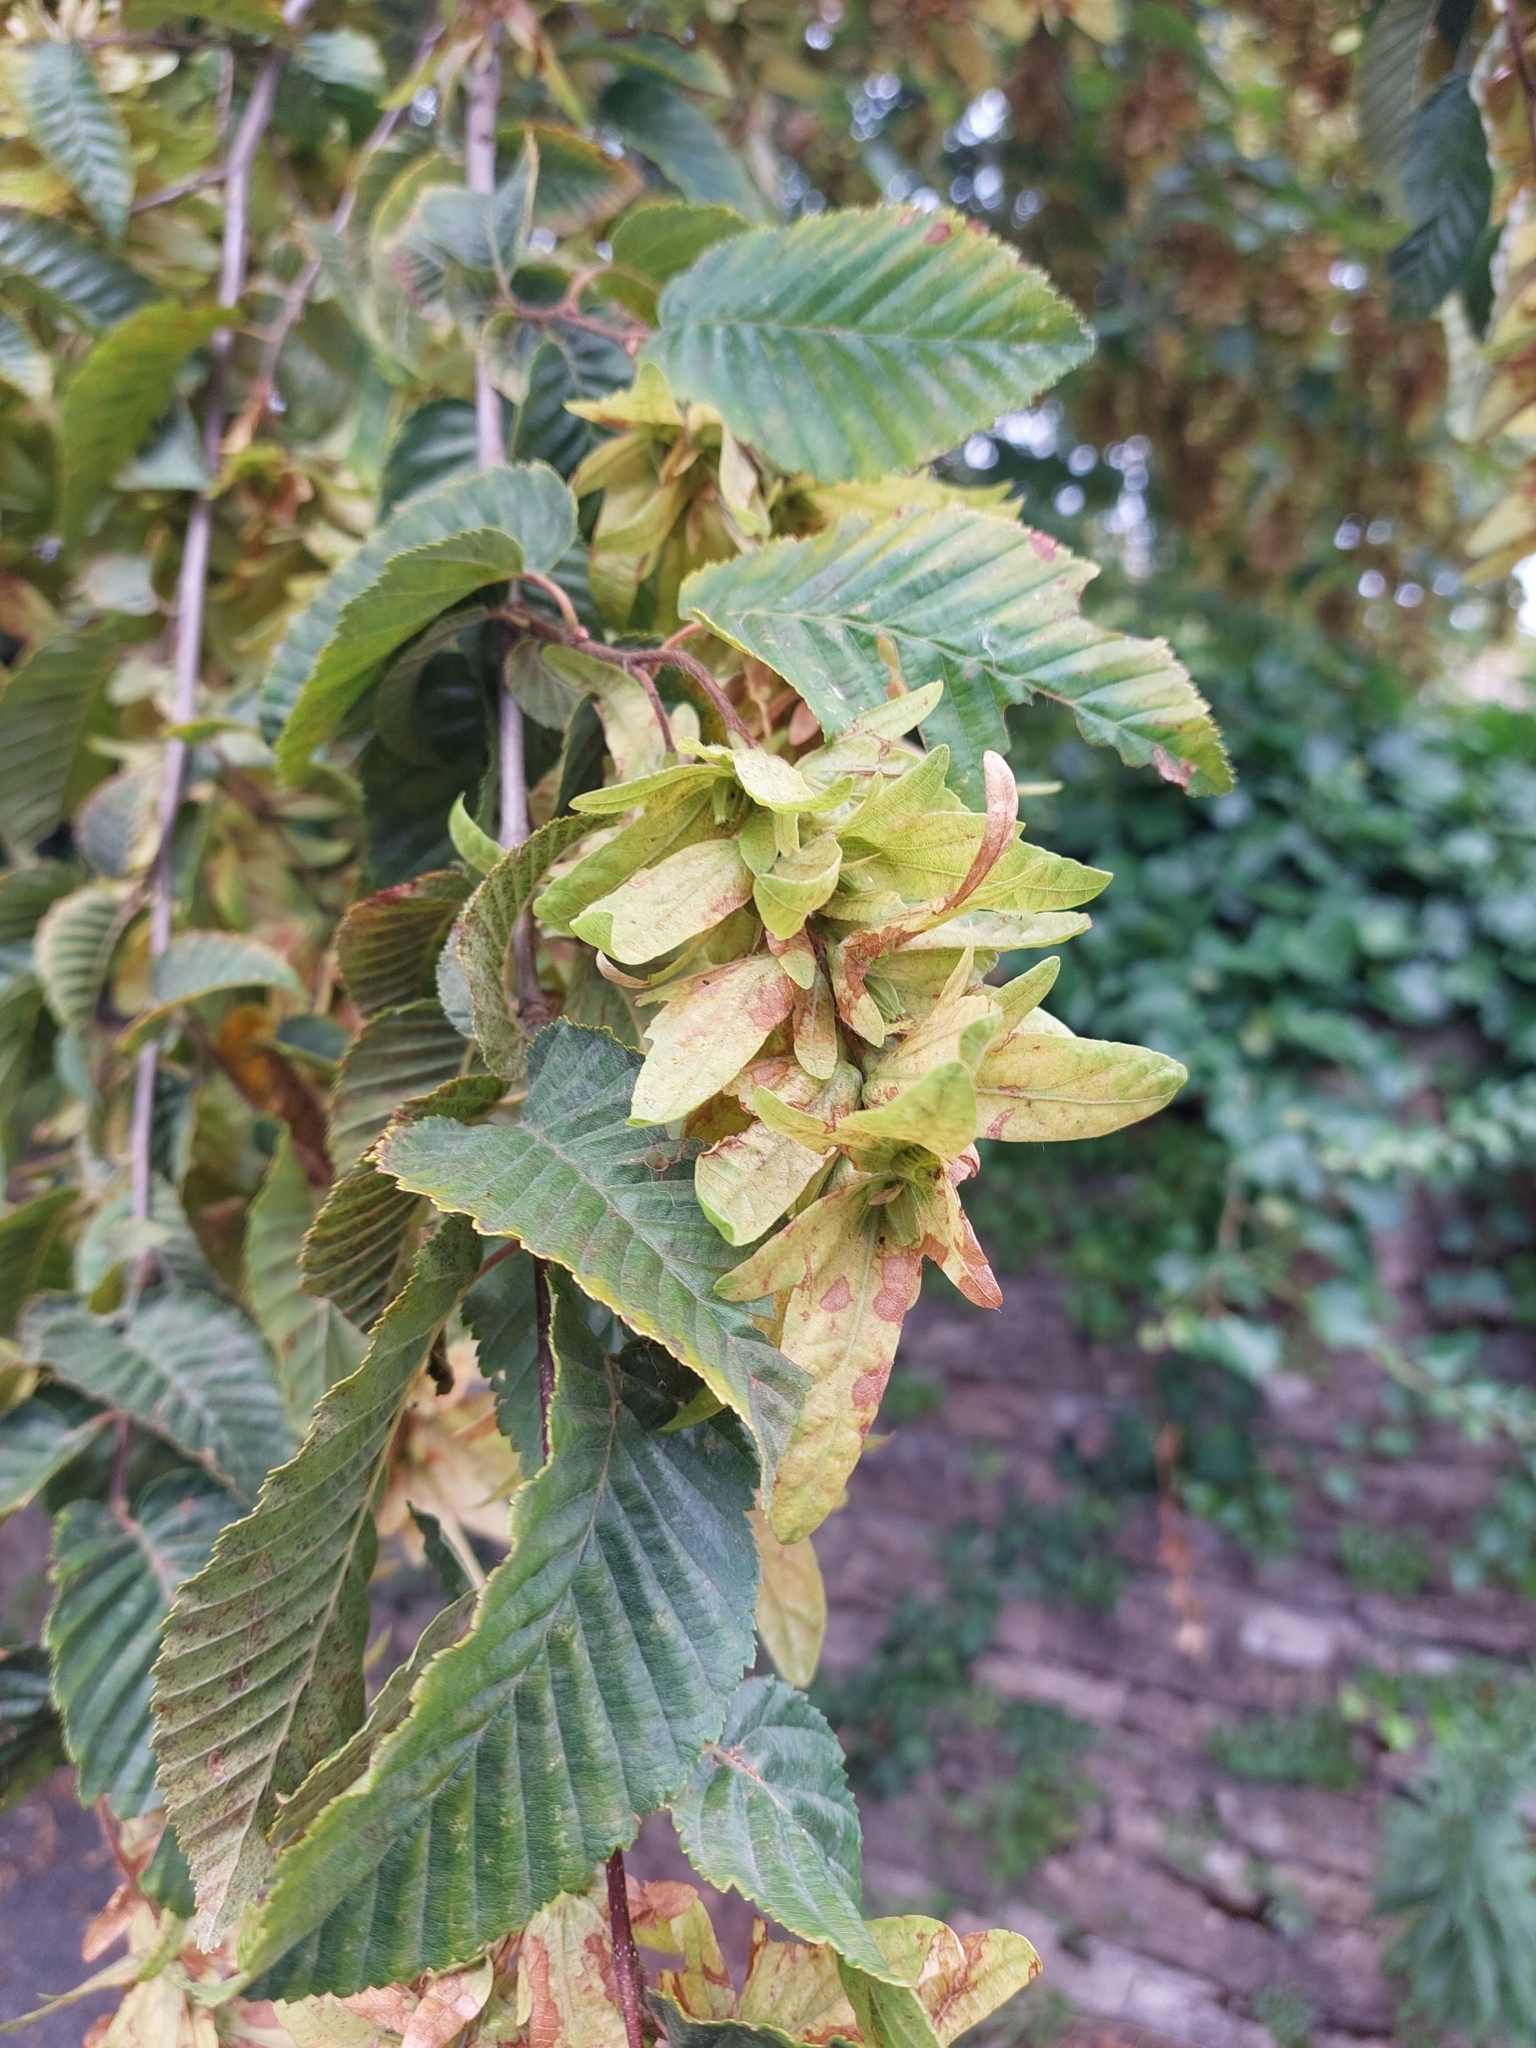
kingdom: Plantae
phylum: Tracheophyta
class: Magnoliopsida
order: Fagales
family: Betulaceae
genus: Carpinus
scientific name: Carpinus betulus
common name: Hornbeam
